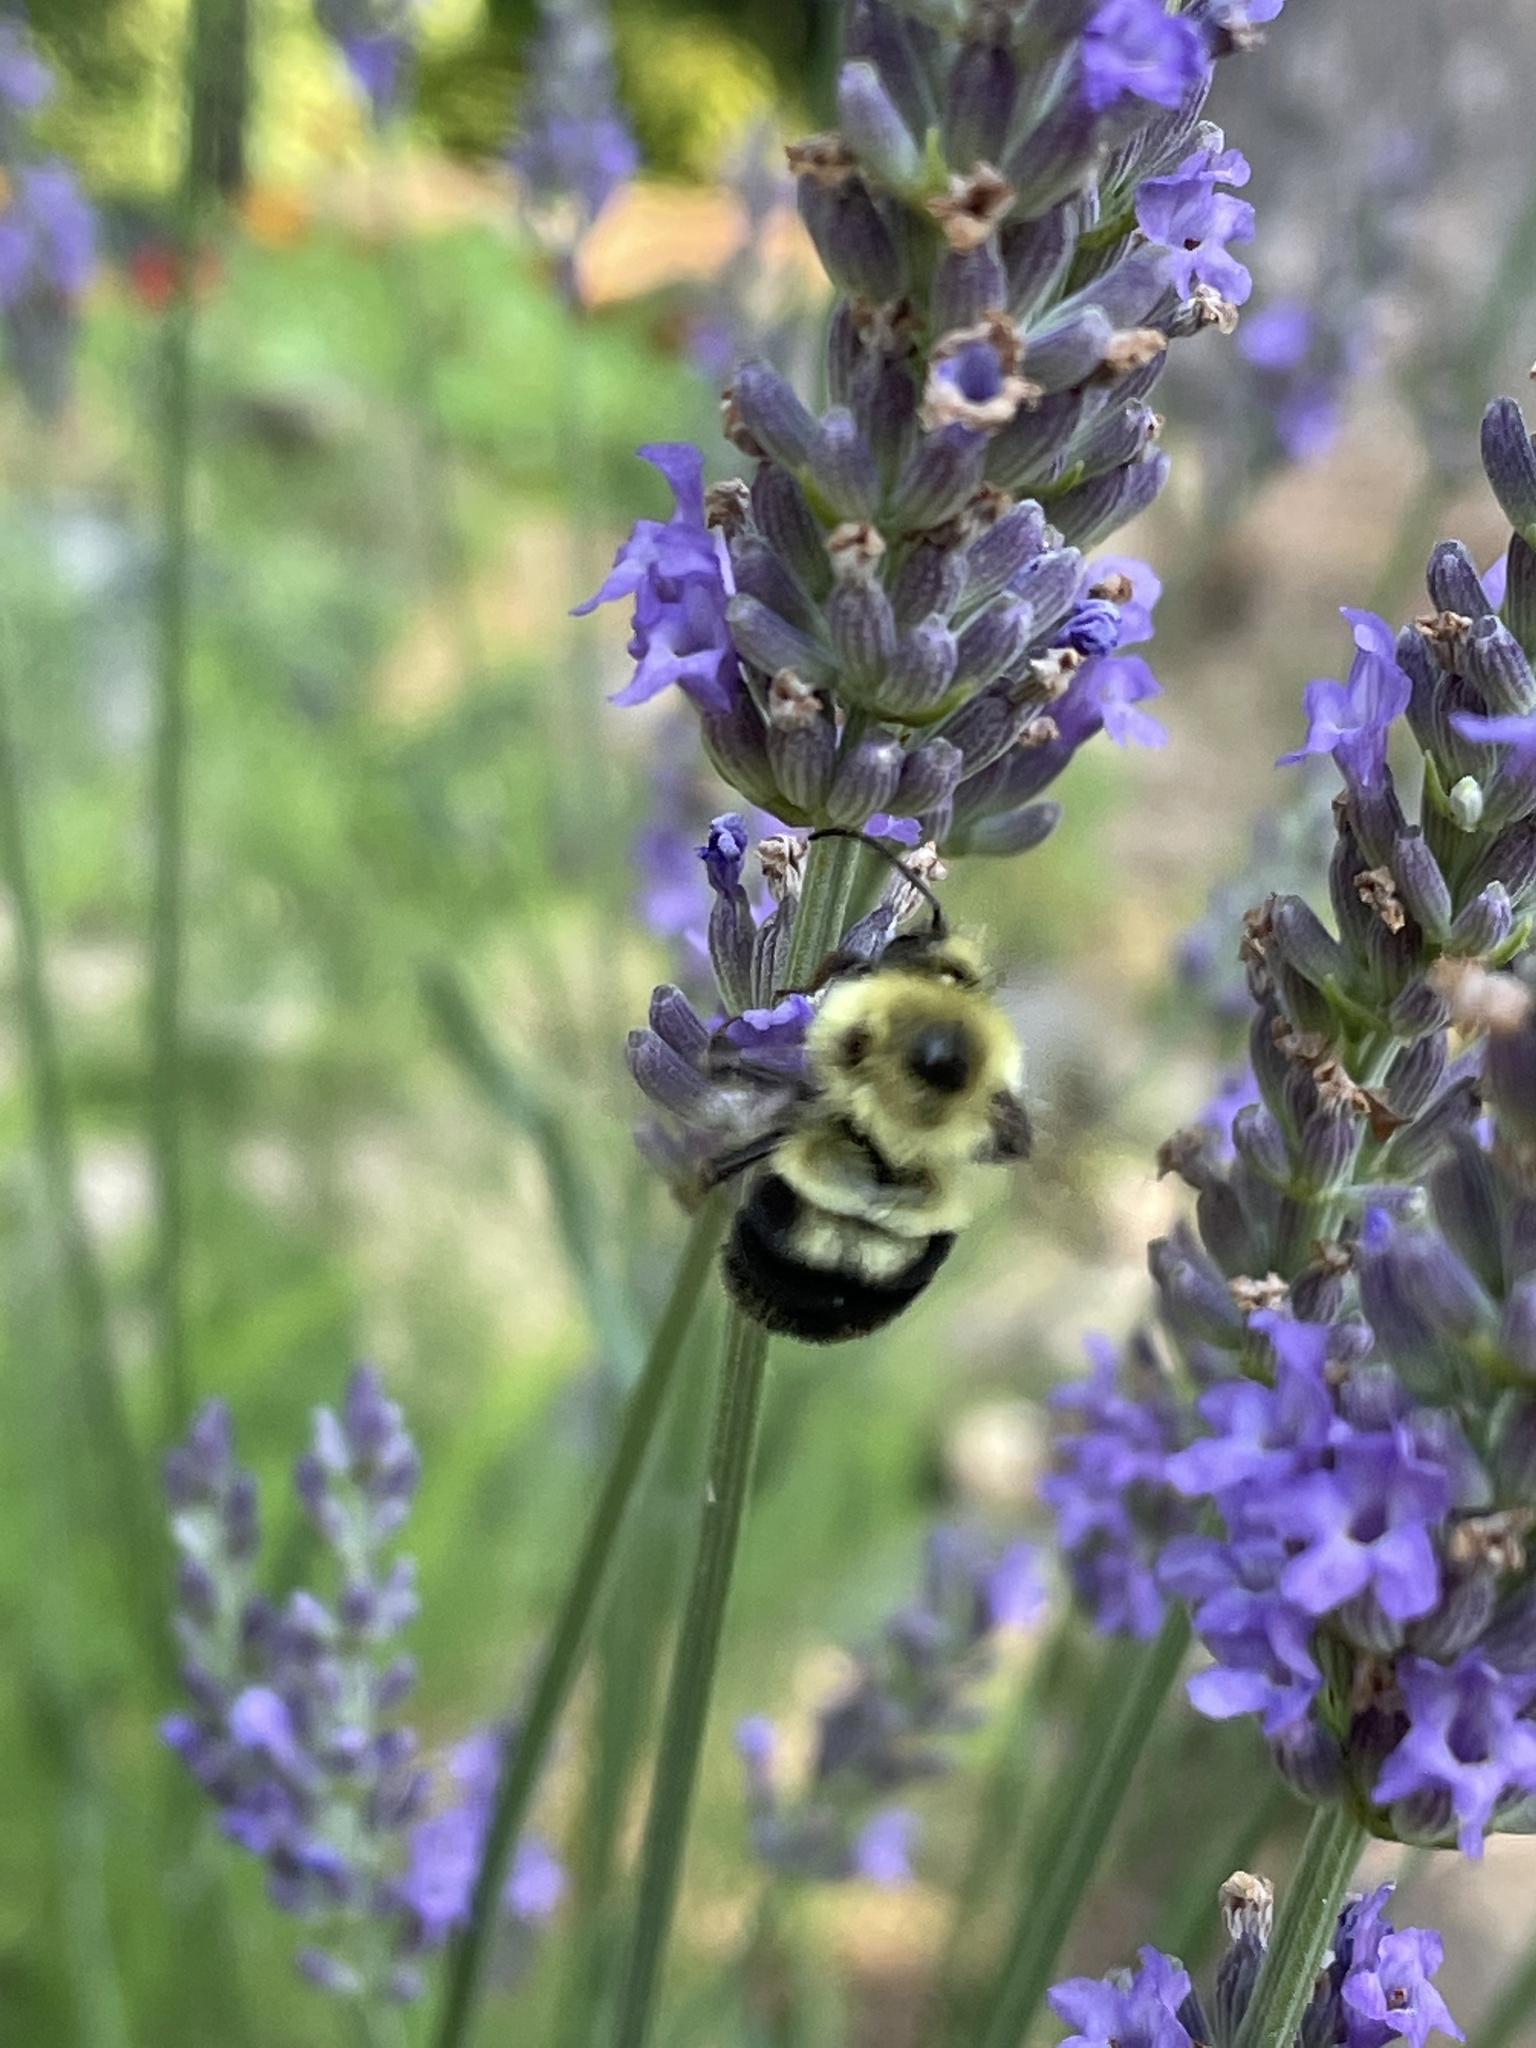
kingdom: Animalia
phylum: Arthropoda
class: Insecta
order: Hymenoptera
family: Apidae
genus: Bombus
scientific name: Bombus bimaculatus
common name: Two-spotted bumble bee
